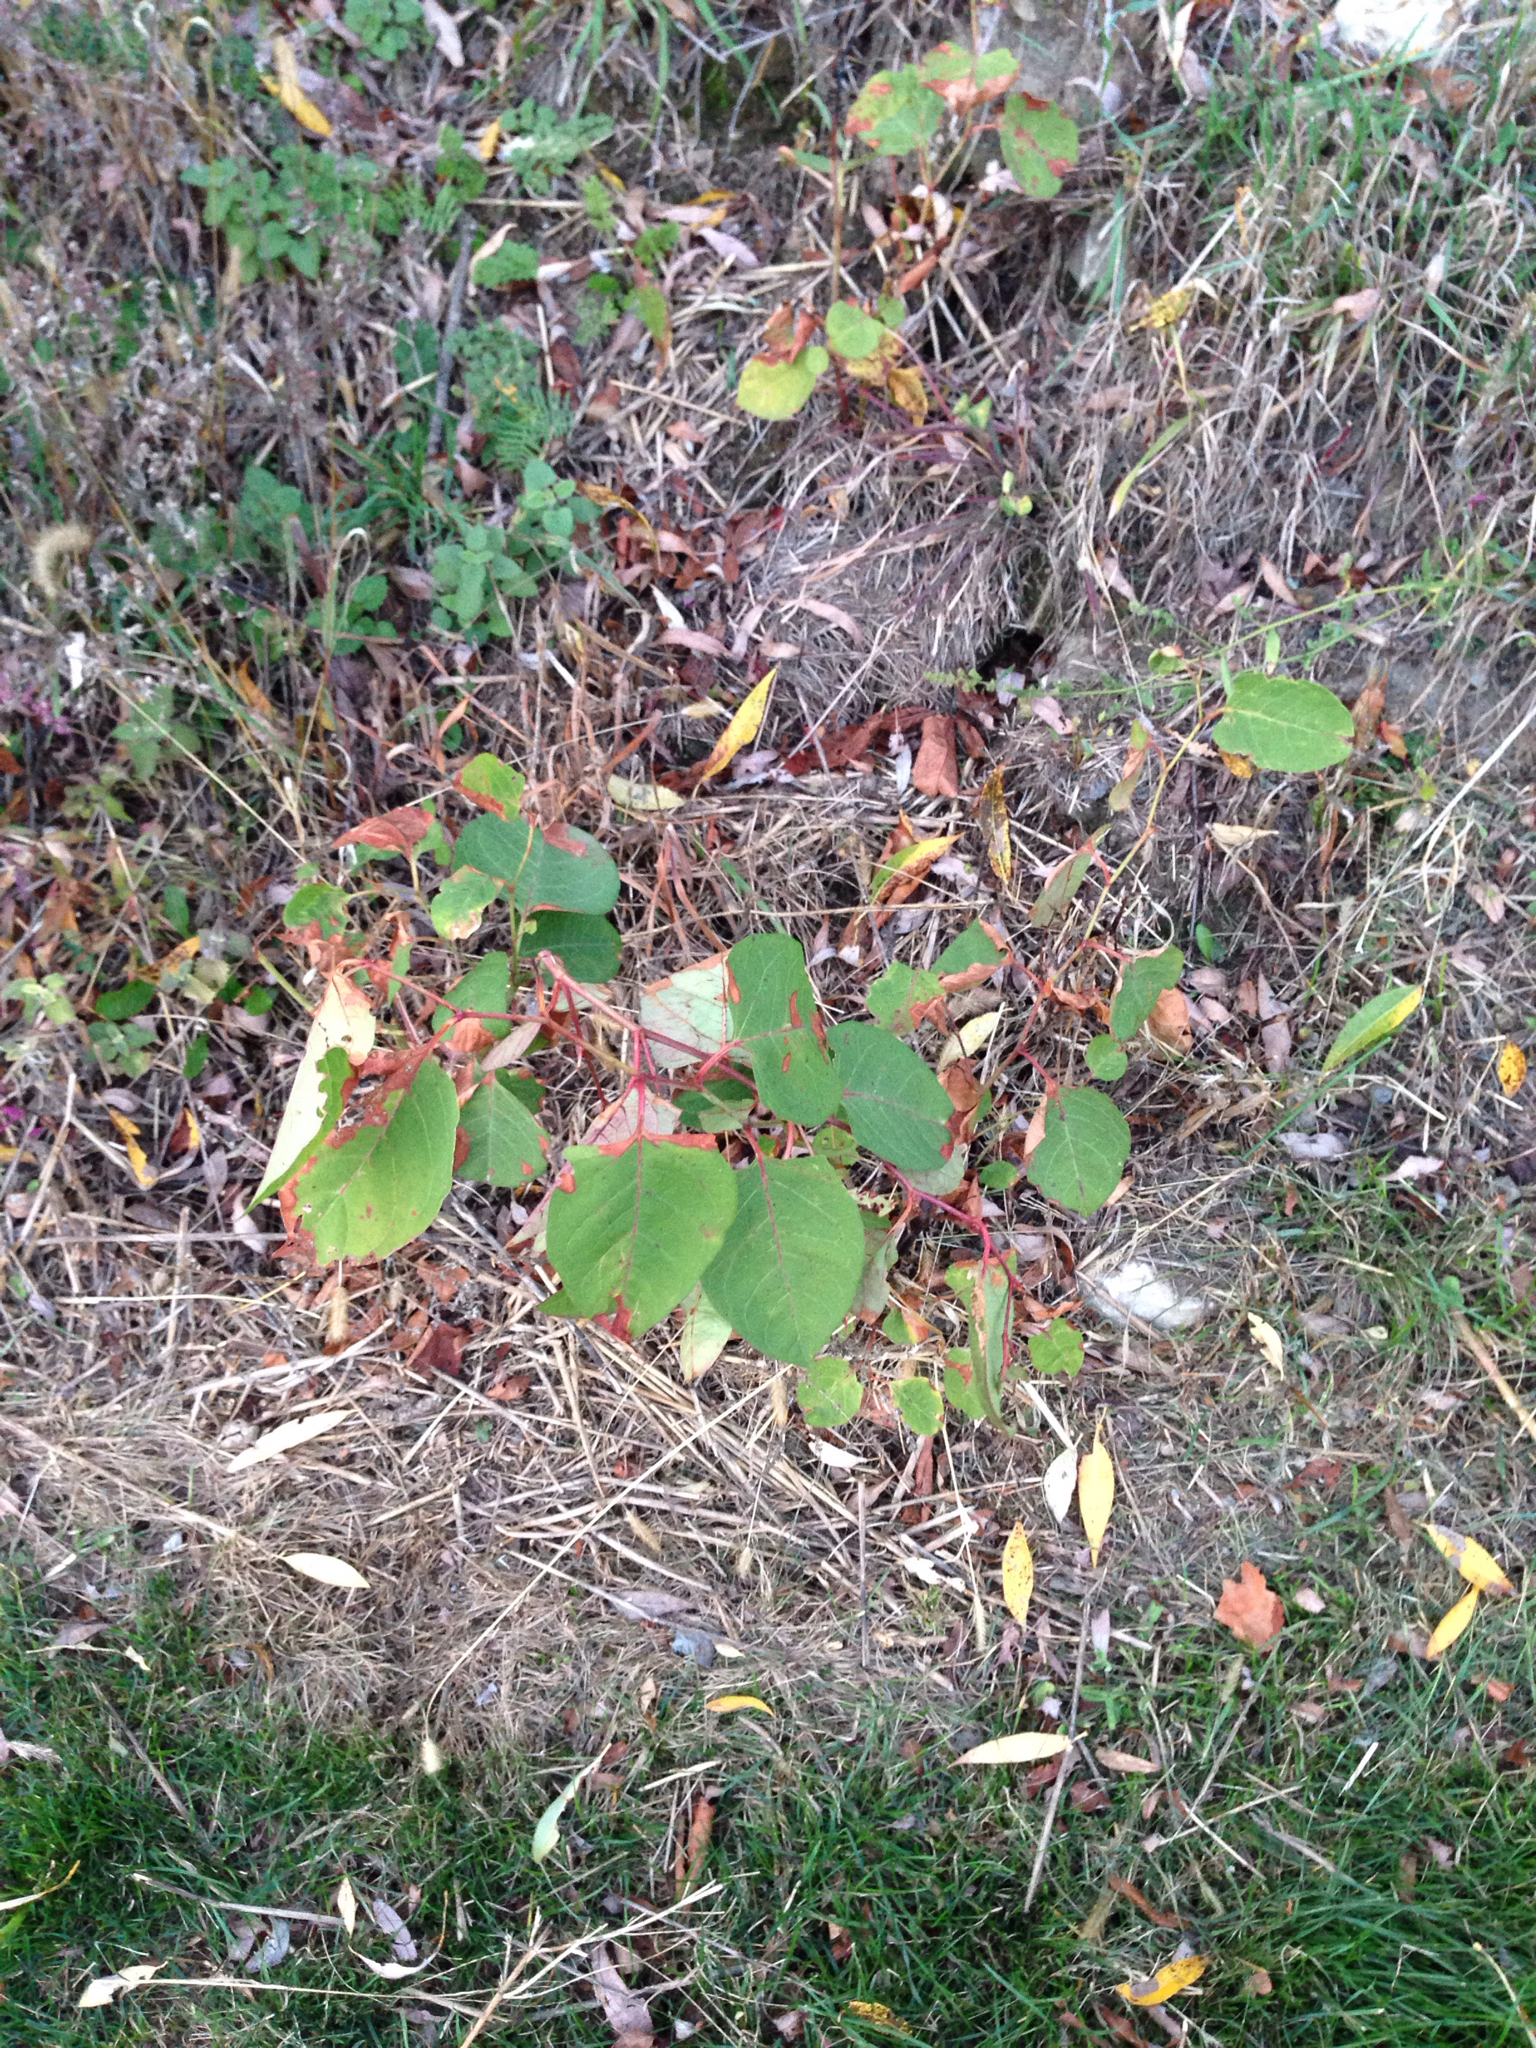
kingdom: Plantae
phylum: Tracheophyta
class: Magnoliopsida
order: Caryophyllales
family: Polygonaceae
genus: Reynoutria
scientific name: Reynoutria japonica
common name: Japanese knotweed
